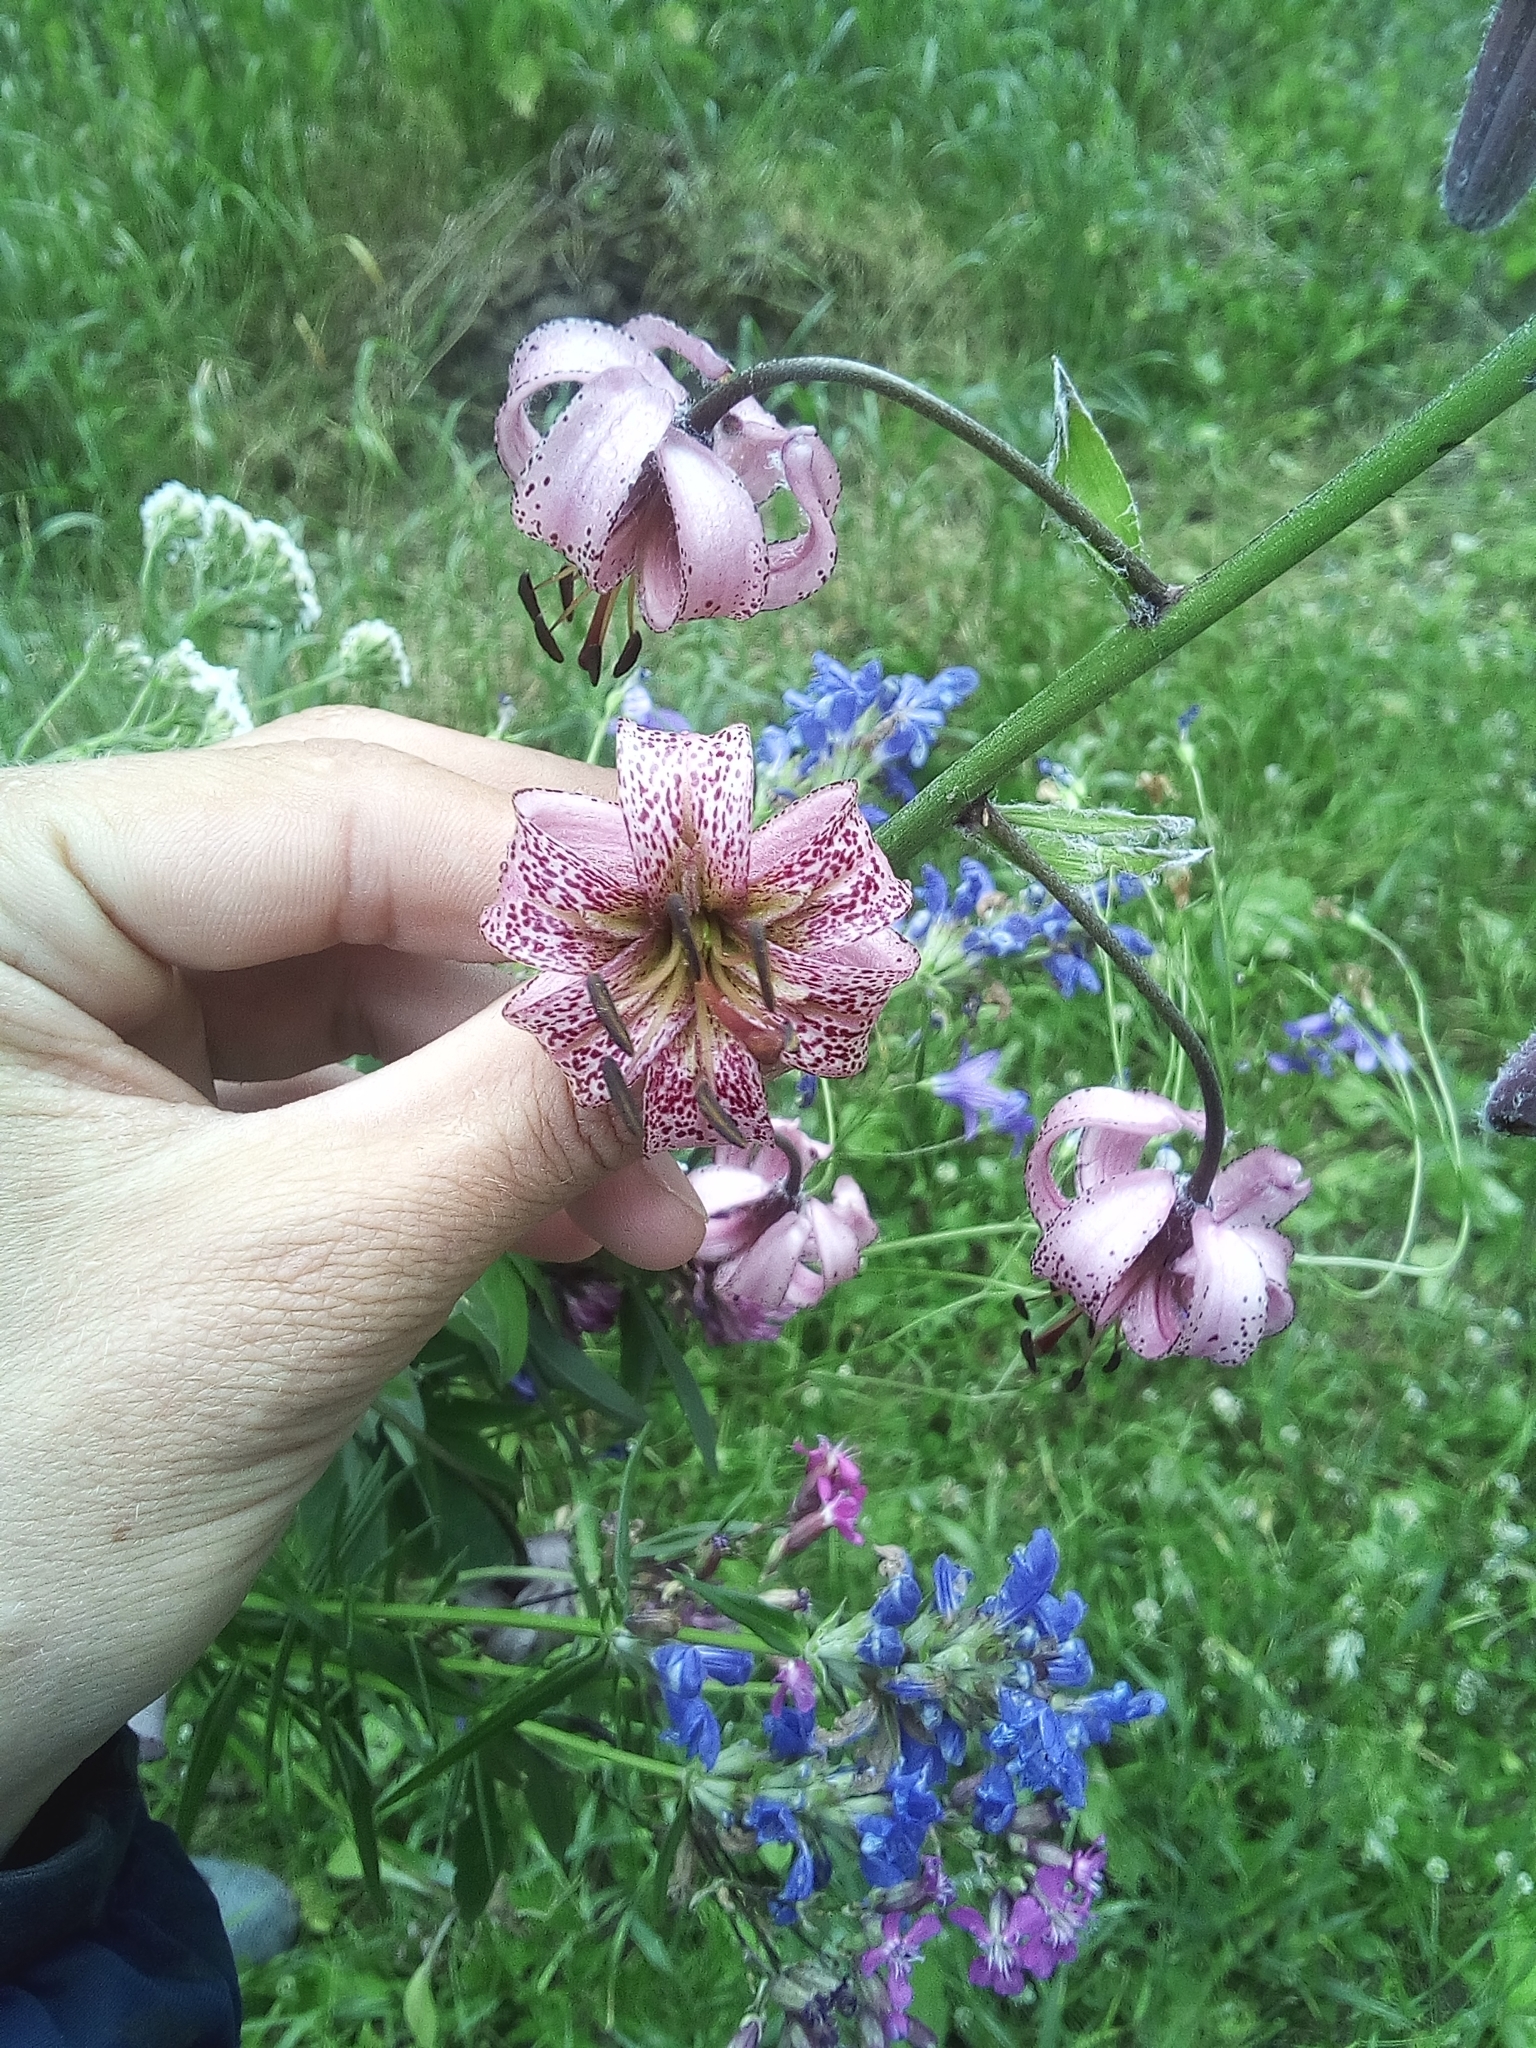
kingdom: Plantae
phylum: Tracheophyta
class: Liliopsida
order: Liliales
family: Liliaceae
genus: Lilium
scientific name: Lilium martagon
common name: Martagon lily
